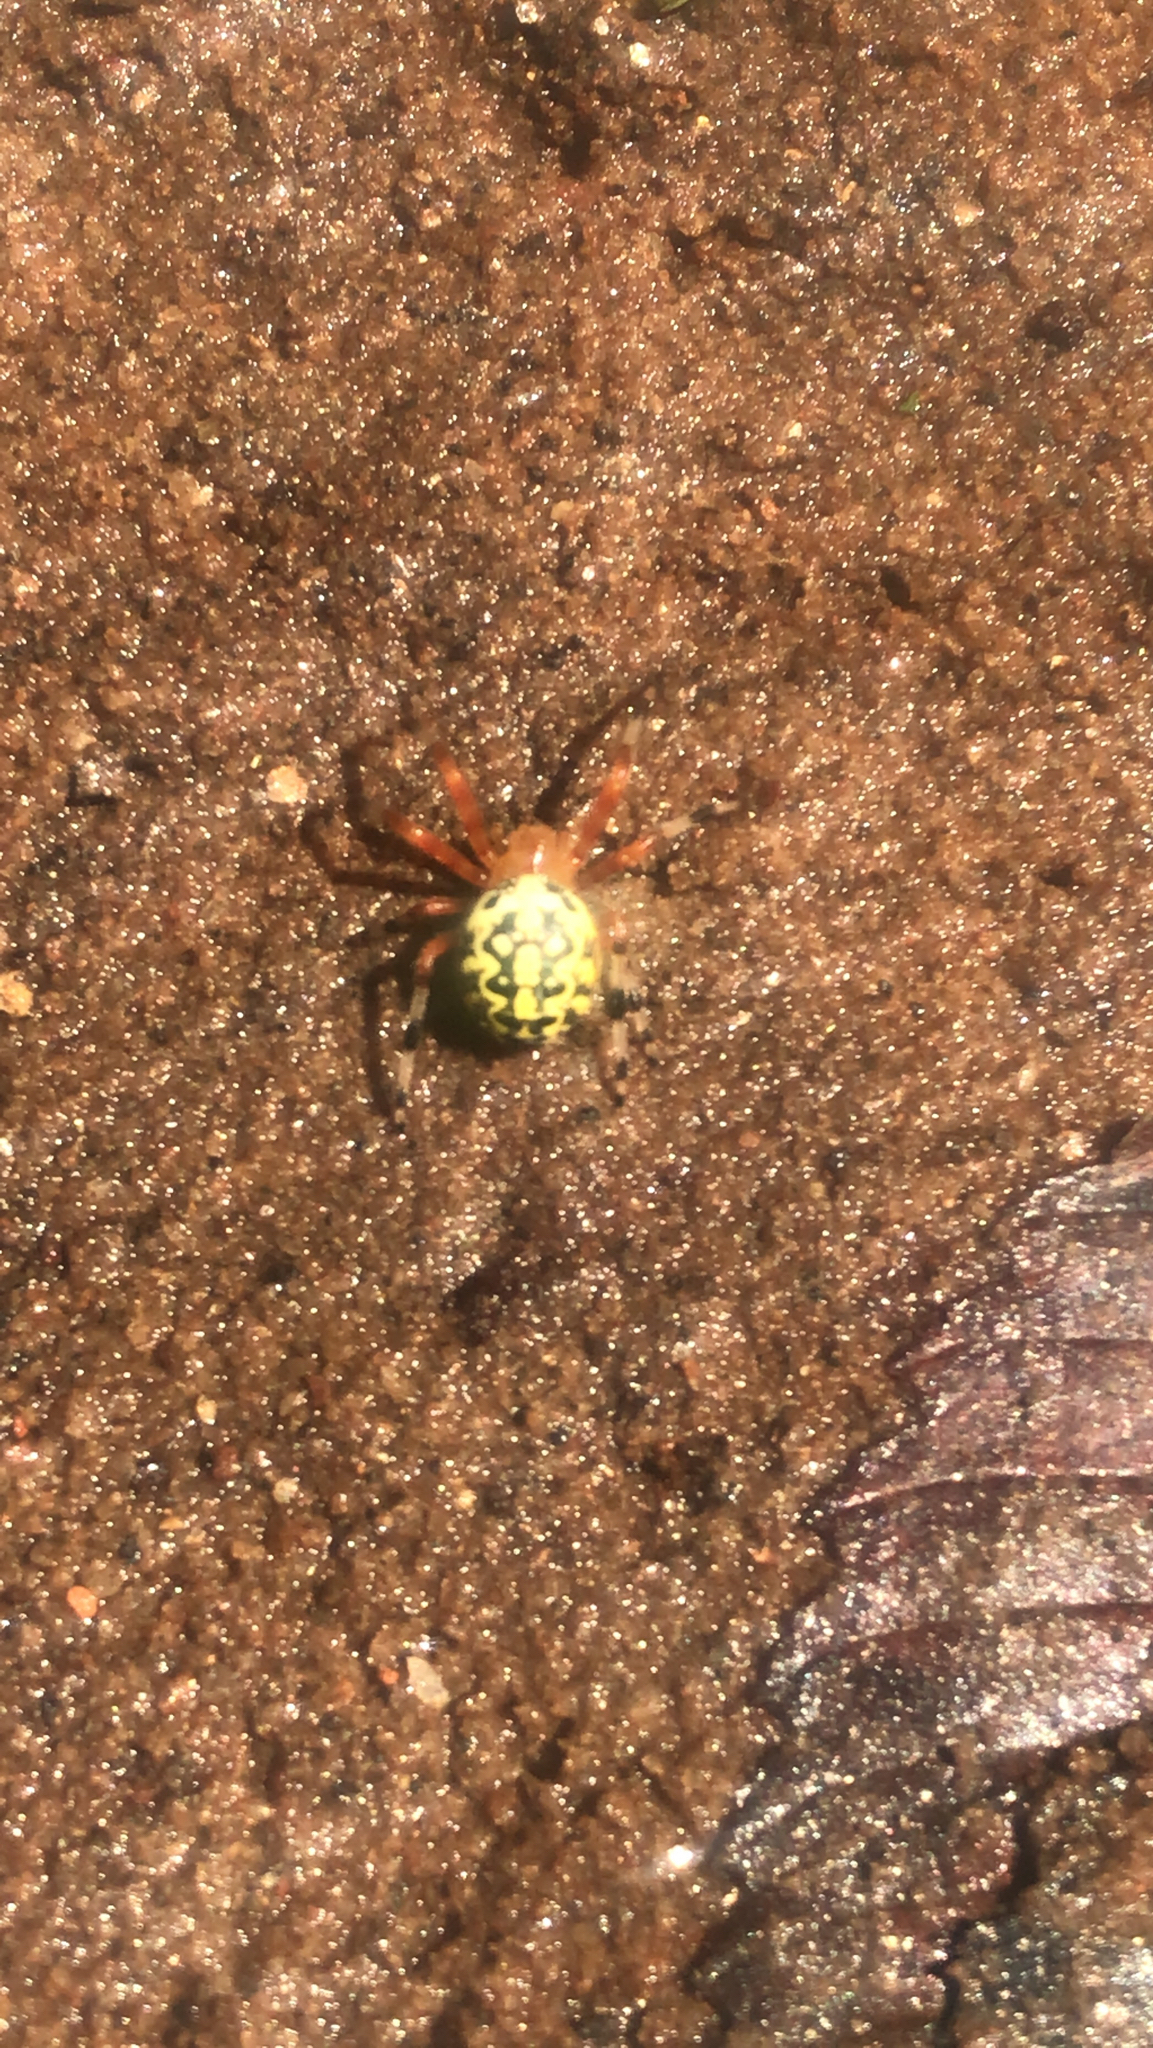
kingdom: Animalia
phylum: Arthropoda
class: Arachnida
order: Araneae
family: Araneidae
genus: Araneus
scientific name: Araneus marmoreus
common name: Marbled orbweaver
